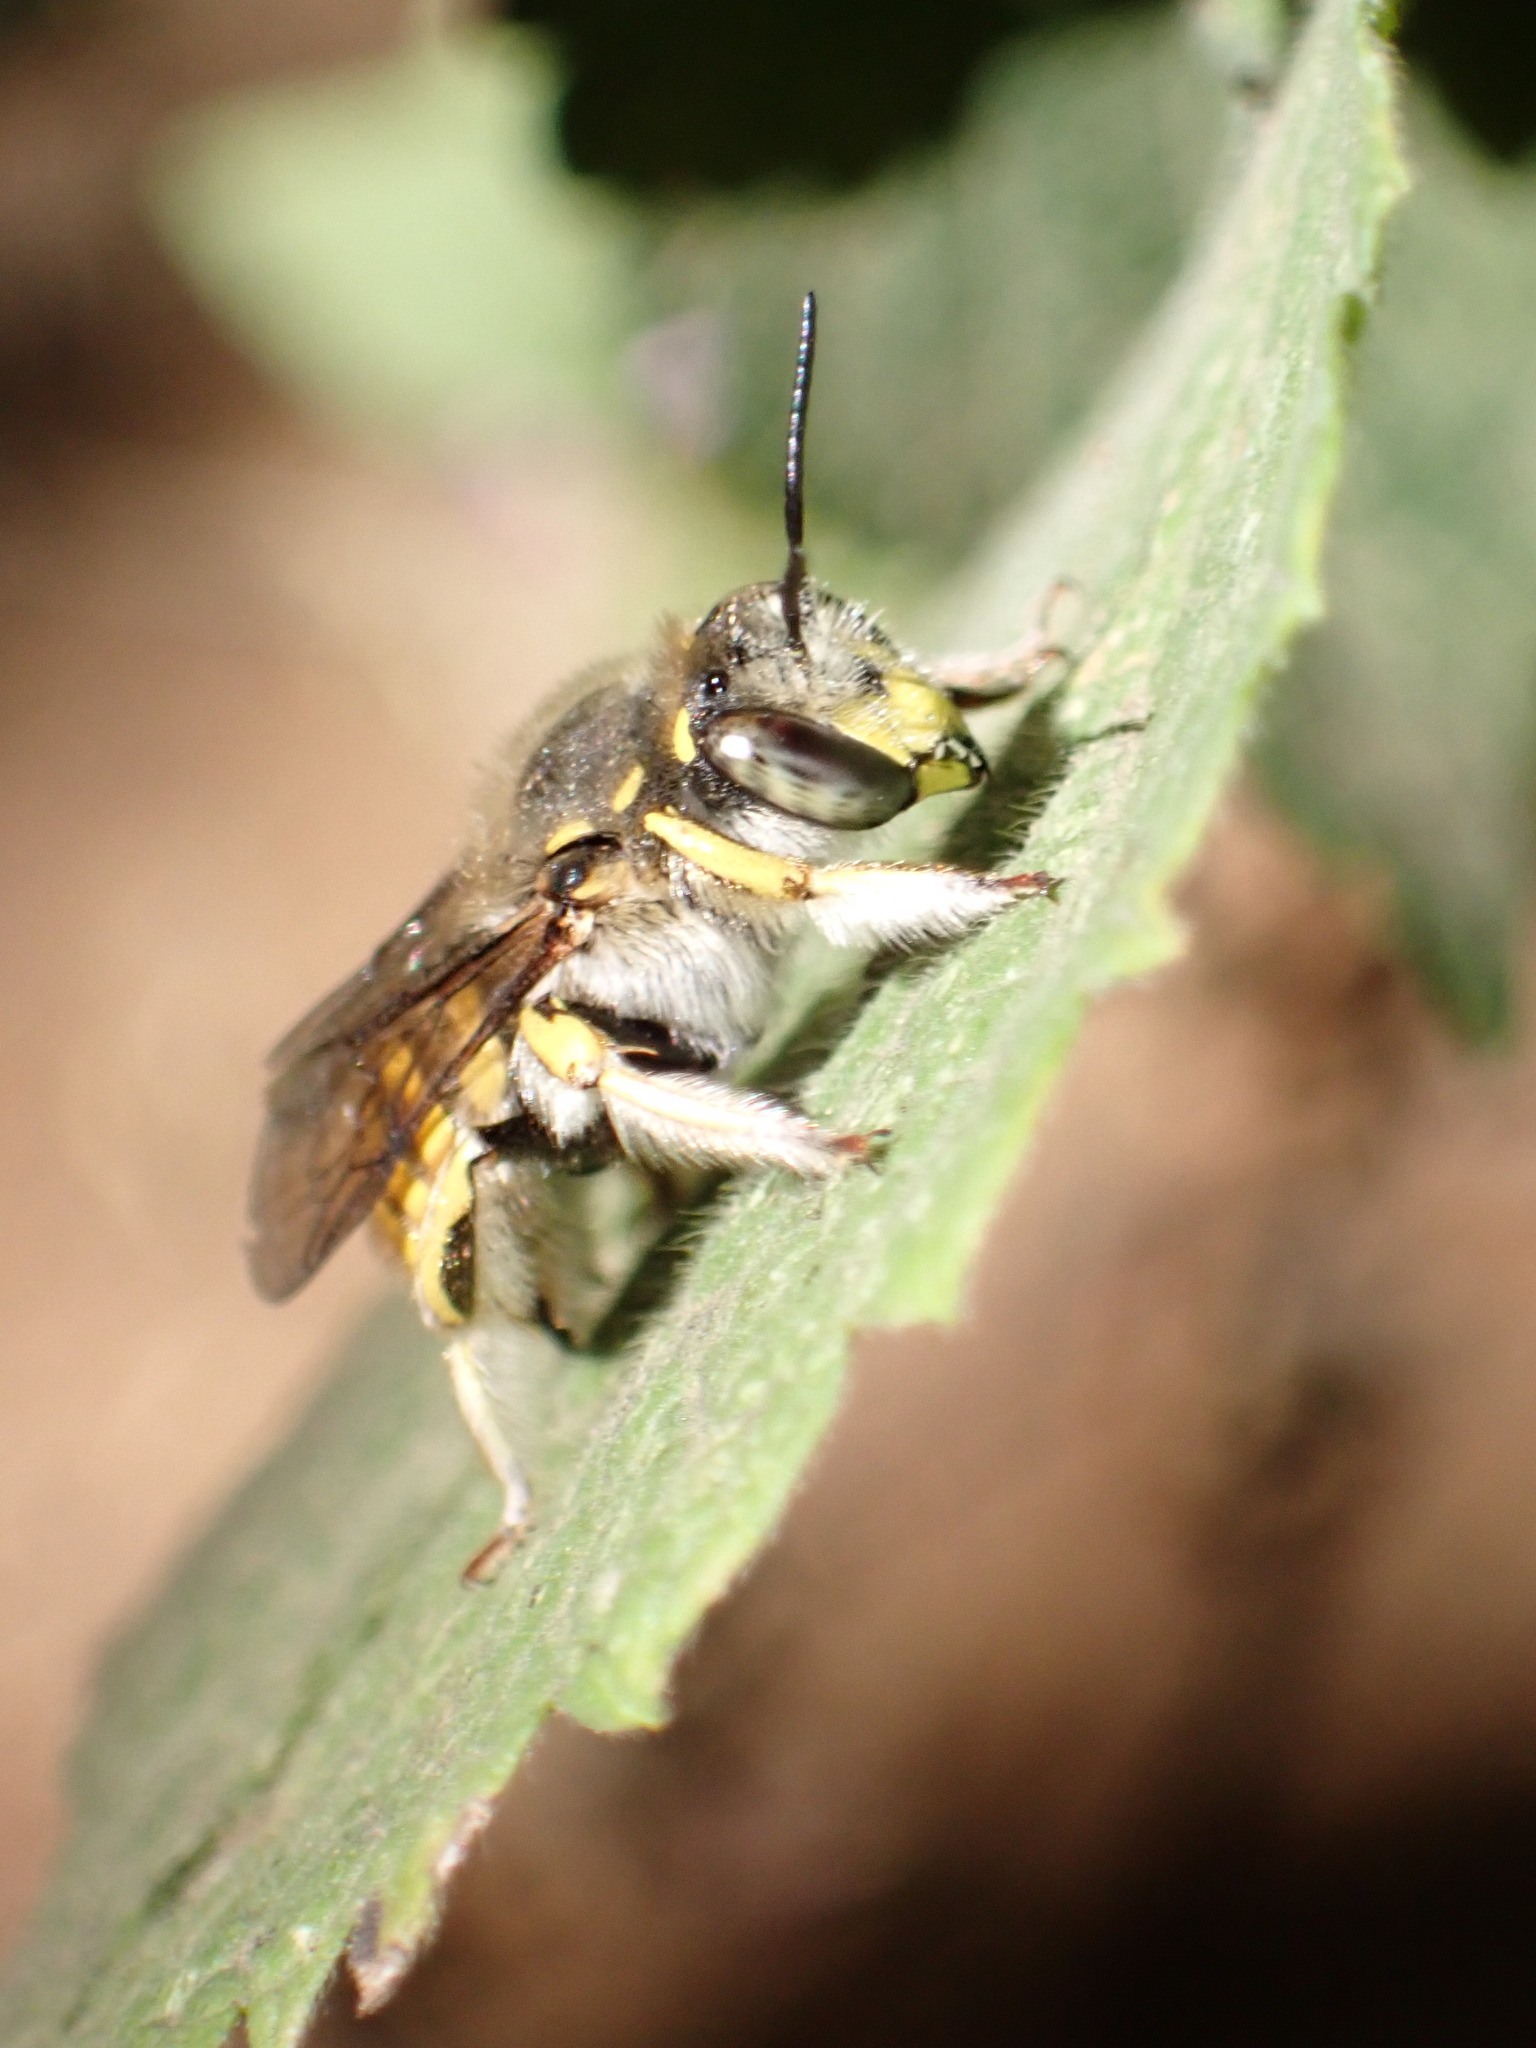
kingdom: Animalia
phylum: Arthropoda
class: Insecta
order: Hymenoptera
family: Megachilidae
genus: Anthidium
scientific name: Anthidium manicatum
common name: Wool carder bee
